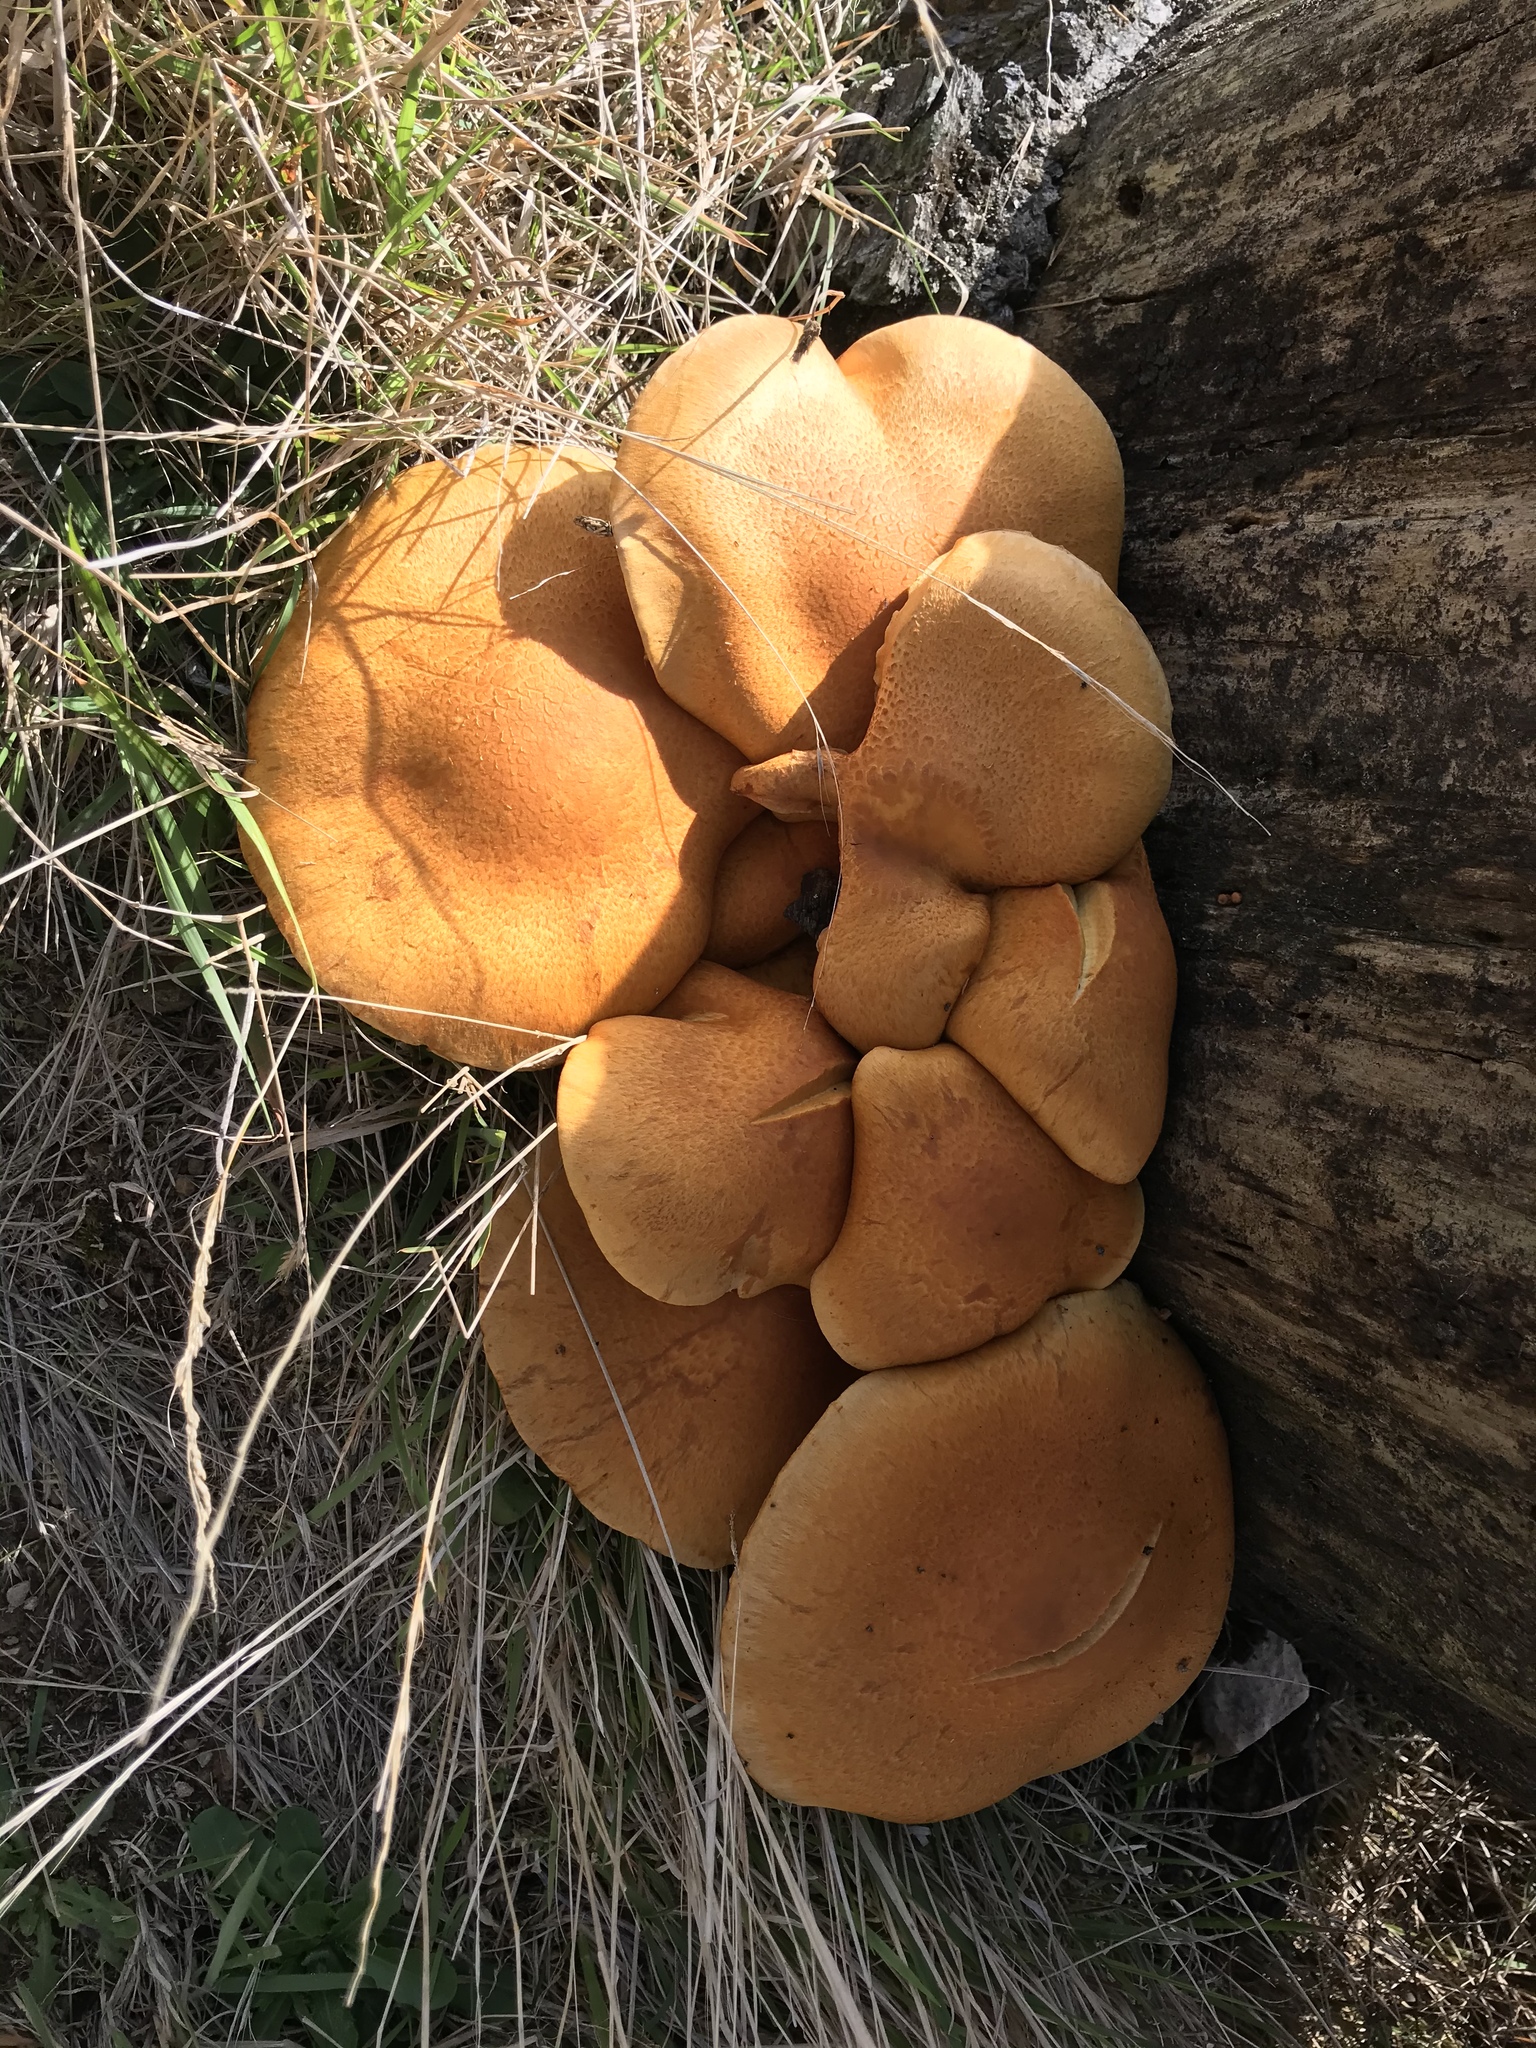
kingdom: Fungi
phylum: Basidiomycota
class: Agaricomycetes
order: Agaricales
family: Hymenogastraceae
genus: Gymnopilus
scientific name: Gymnopilus junonius
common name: Spectacular rustgill
